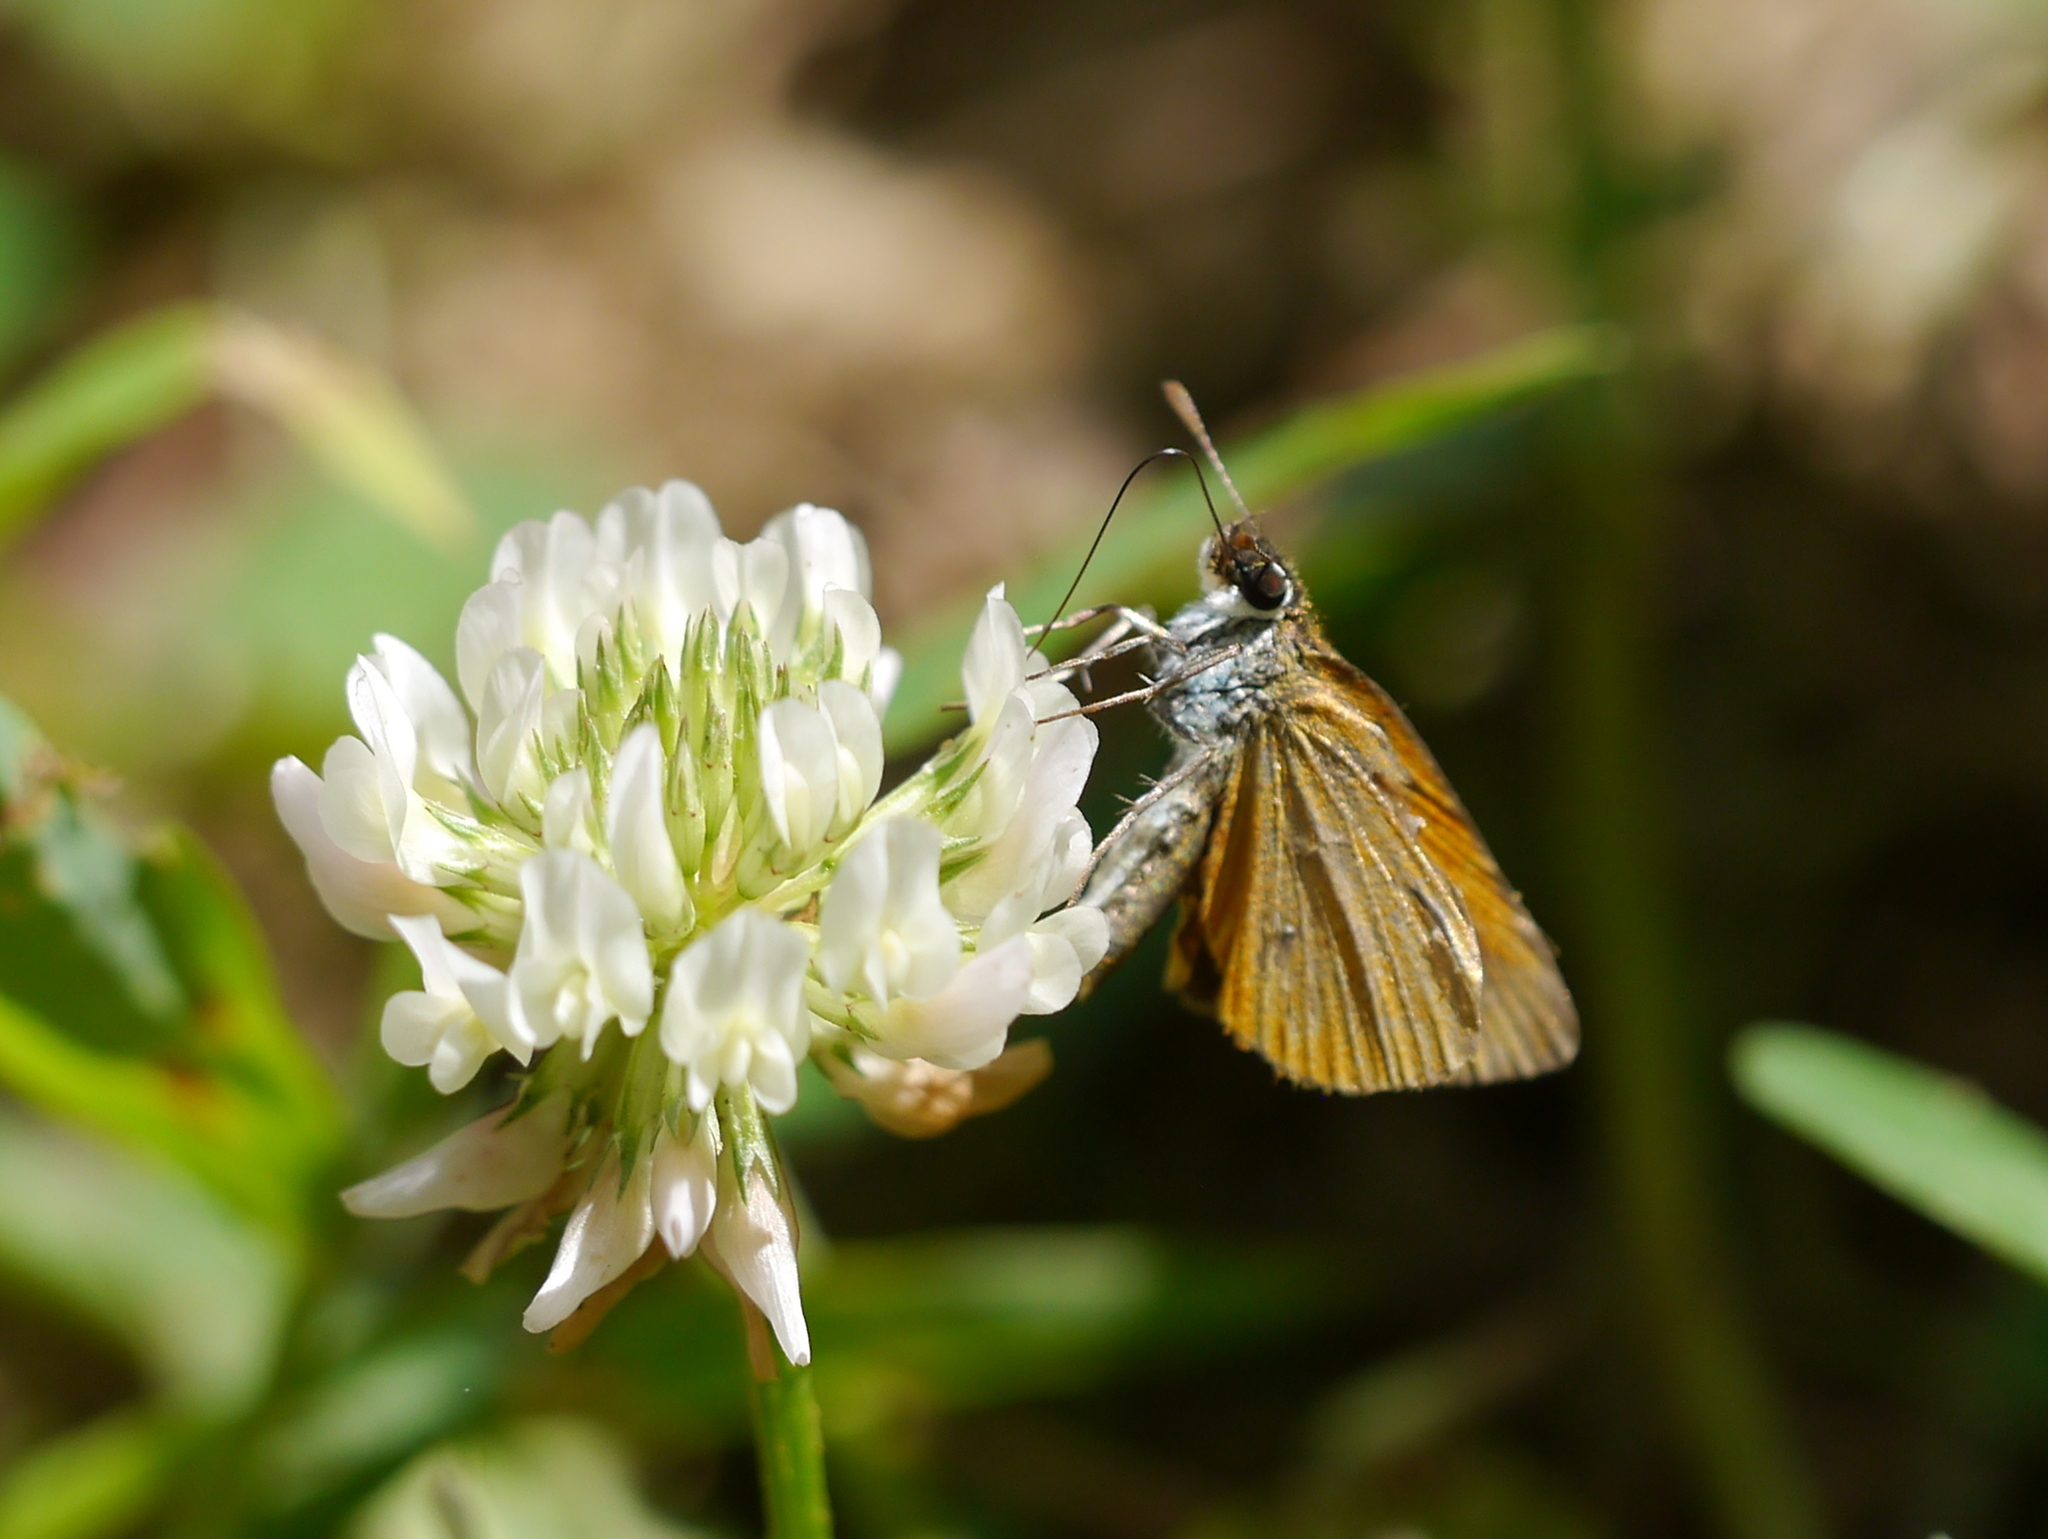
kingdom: Animalia
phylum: Arthropoda
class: Insecta
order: Lepidoptera
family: Hesperiidae
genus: Ancyloxypha
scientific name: Ancyloxypha numitor
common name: Least skipper
